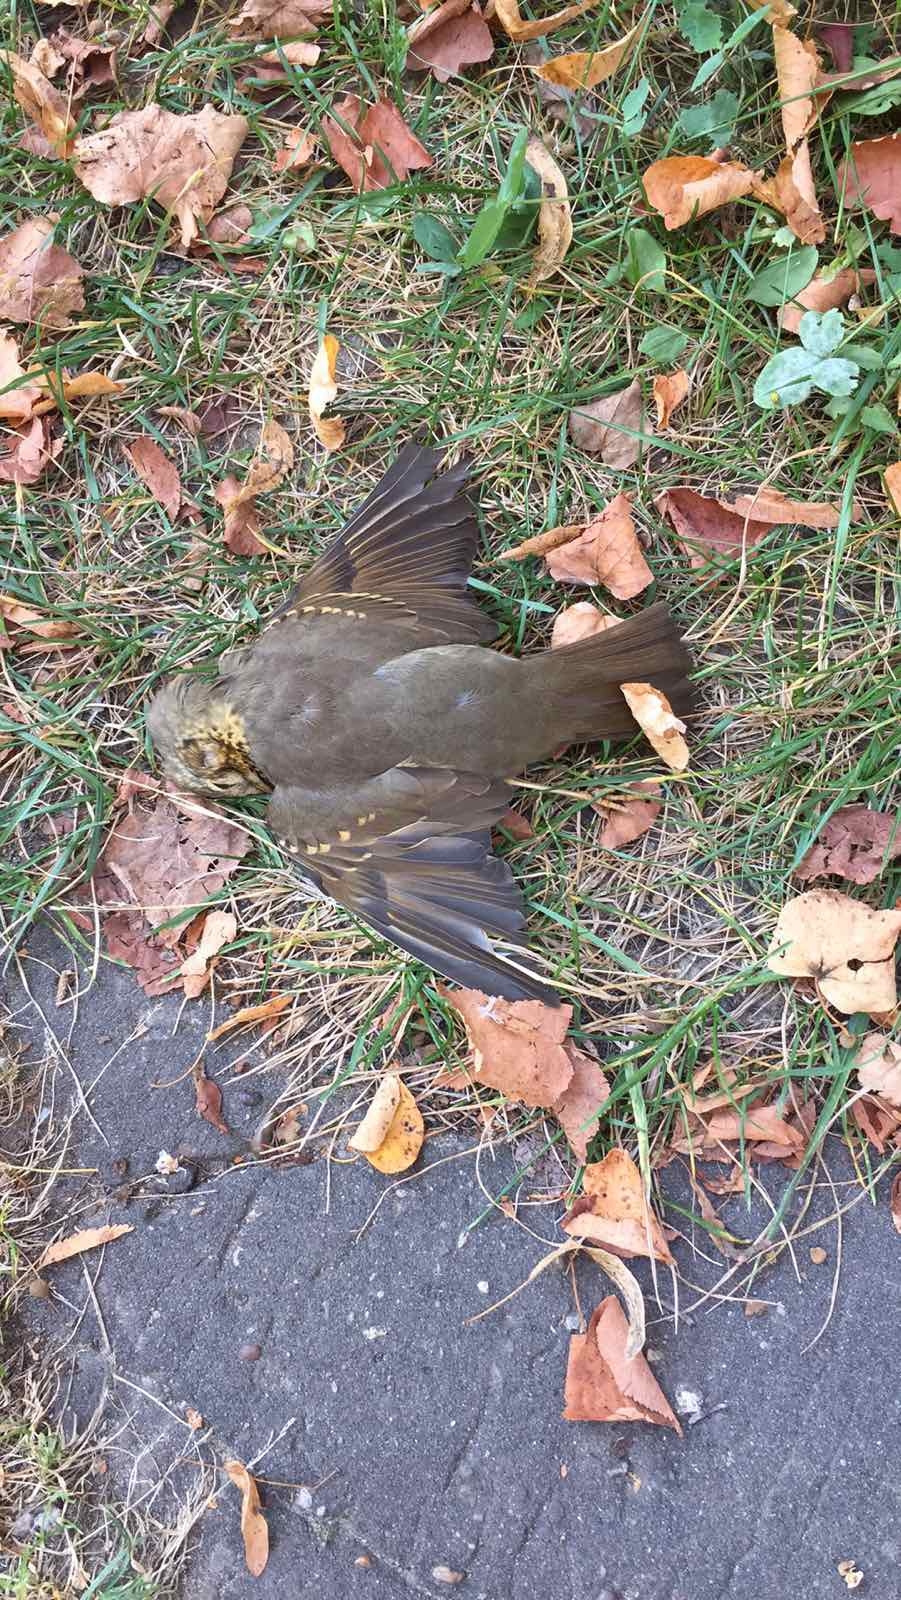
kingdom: Animalia
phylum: Chordata
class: Aves
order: Passeriformes
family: Turdidae
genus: Turdus
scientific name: Turdus philomelos
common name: Song thrush
